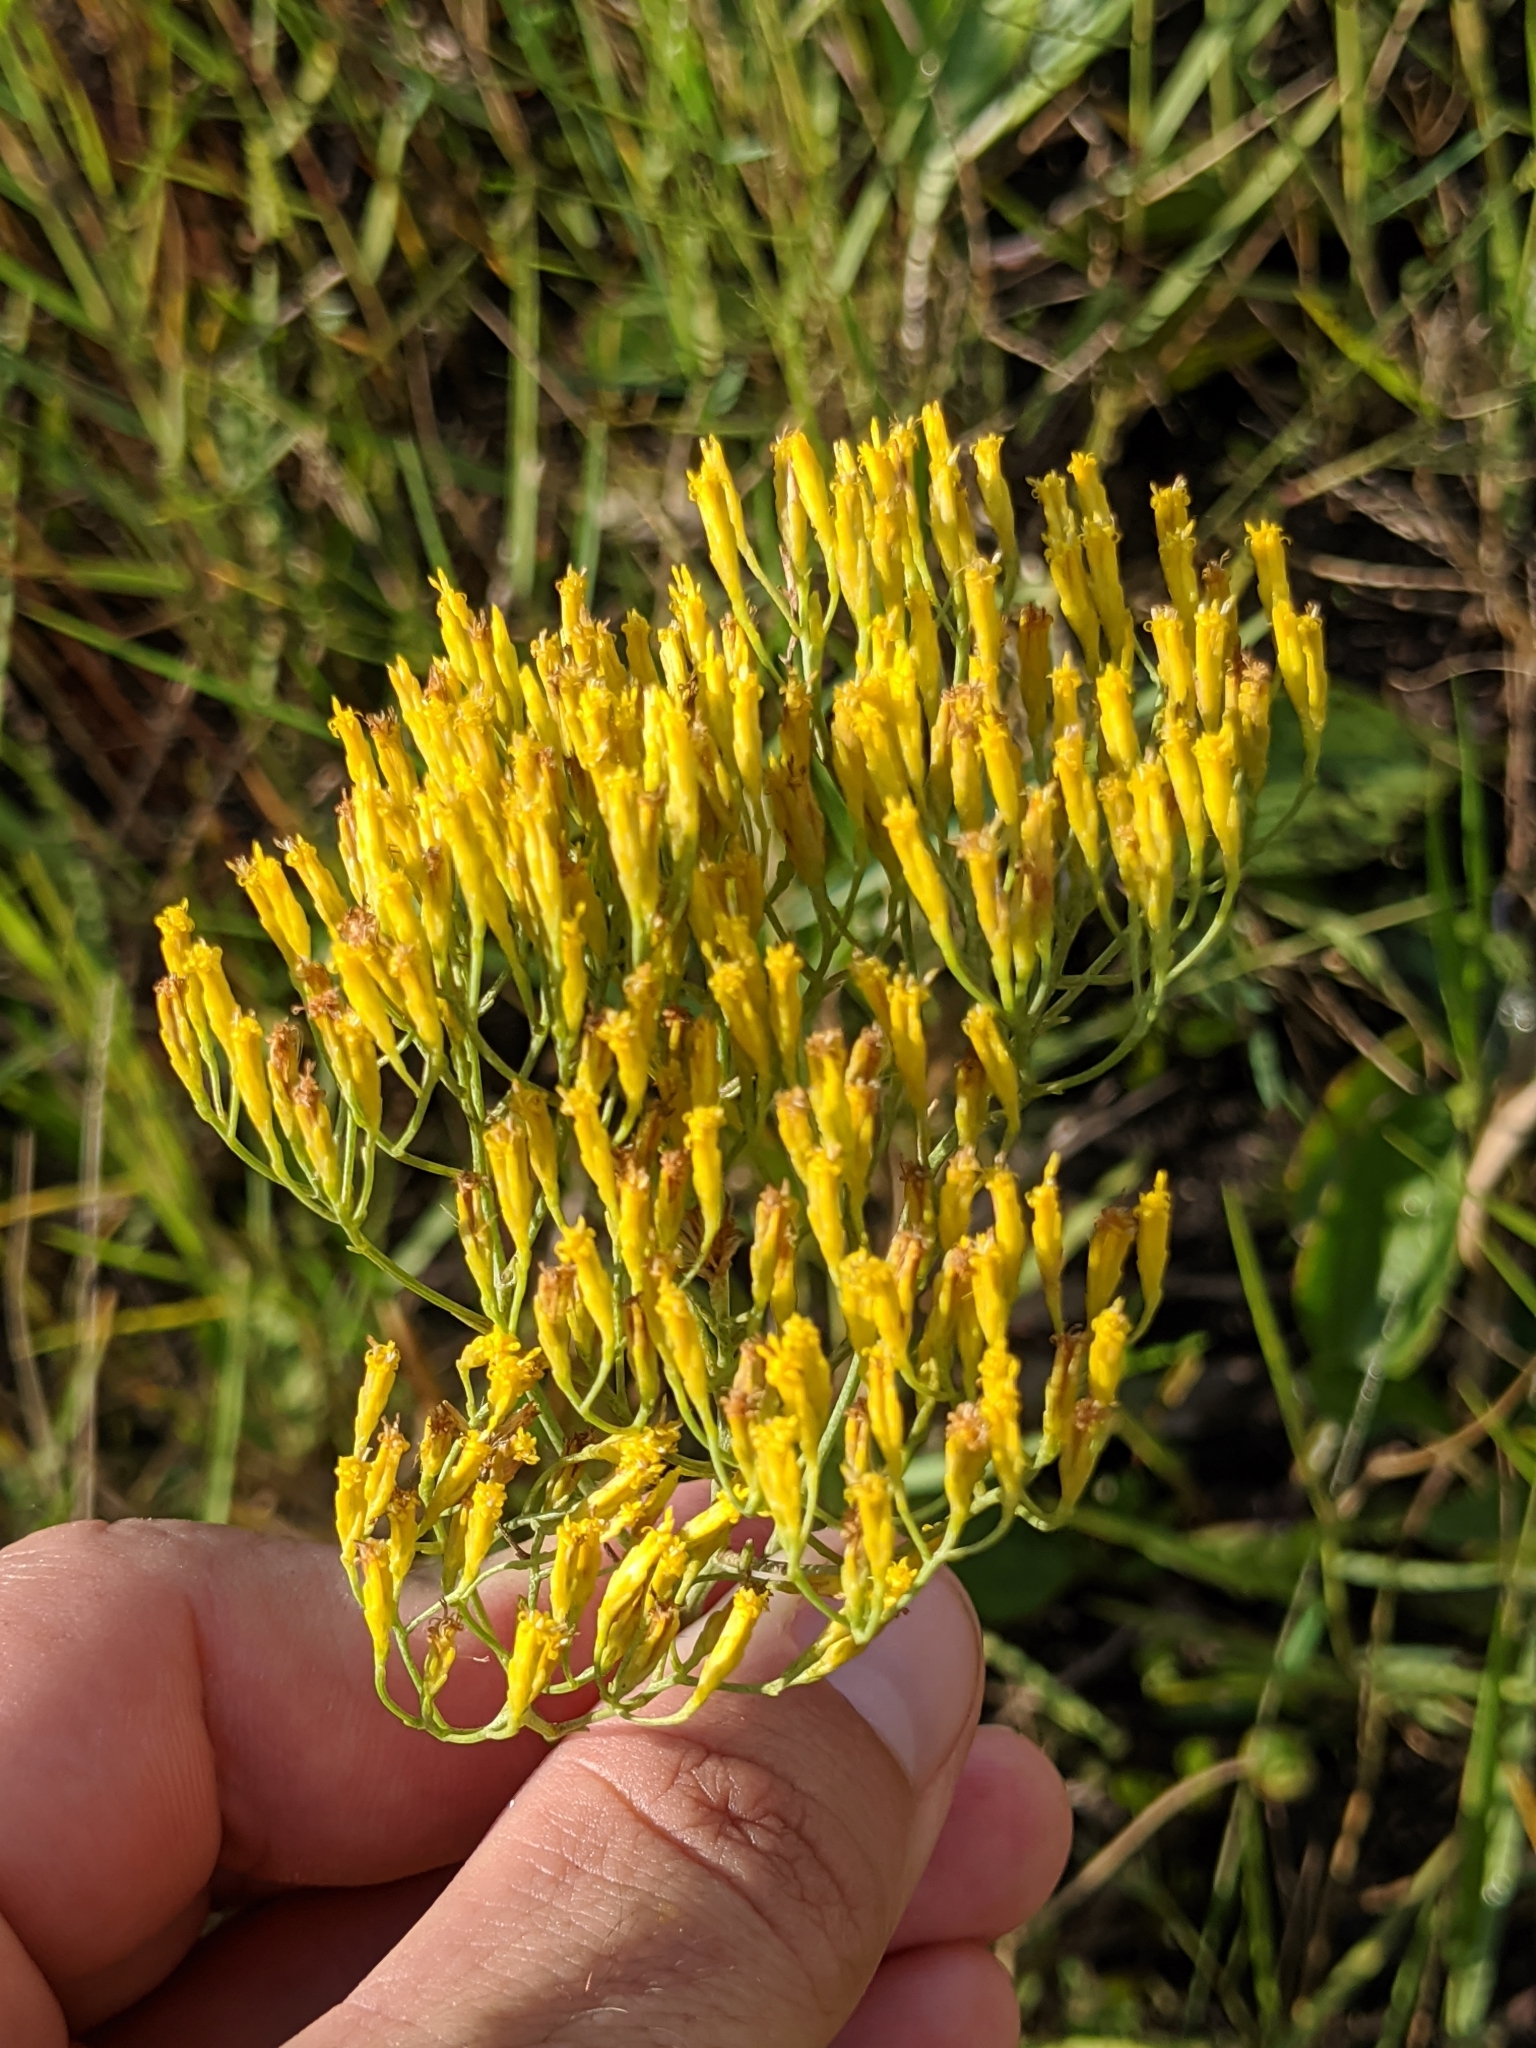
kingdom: Plantae
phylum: Tracheophyta
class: Magnoliopsida
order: Asterales
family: Asteraceae
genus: Bigelowia
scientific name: Bigelowia nudata
